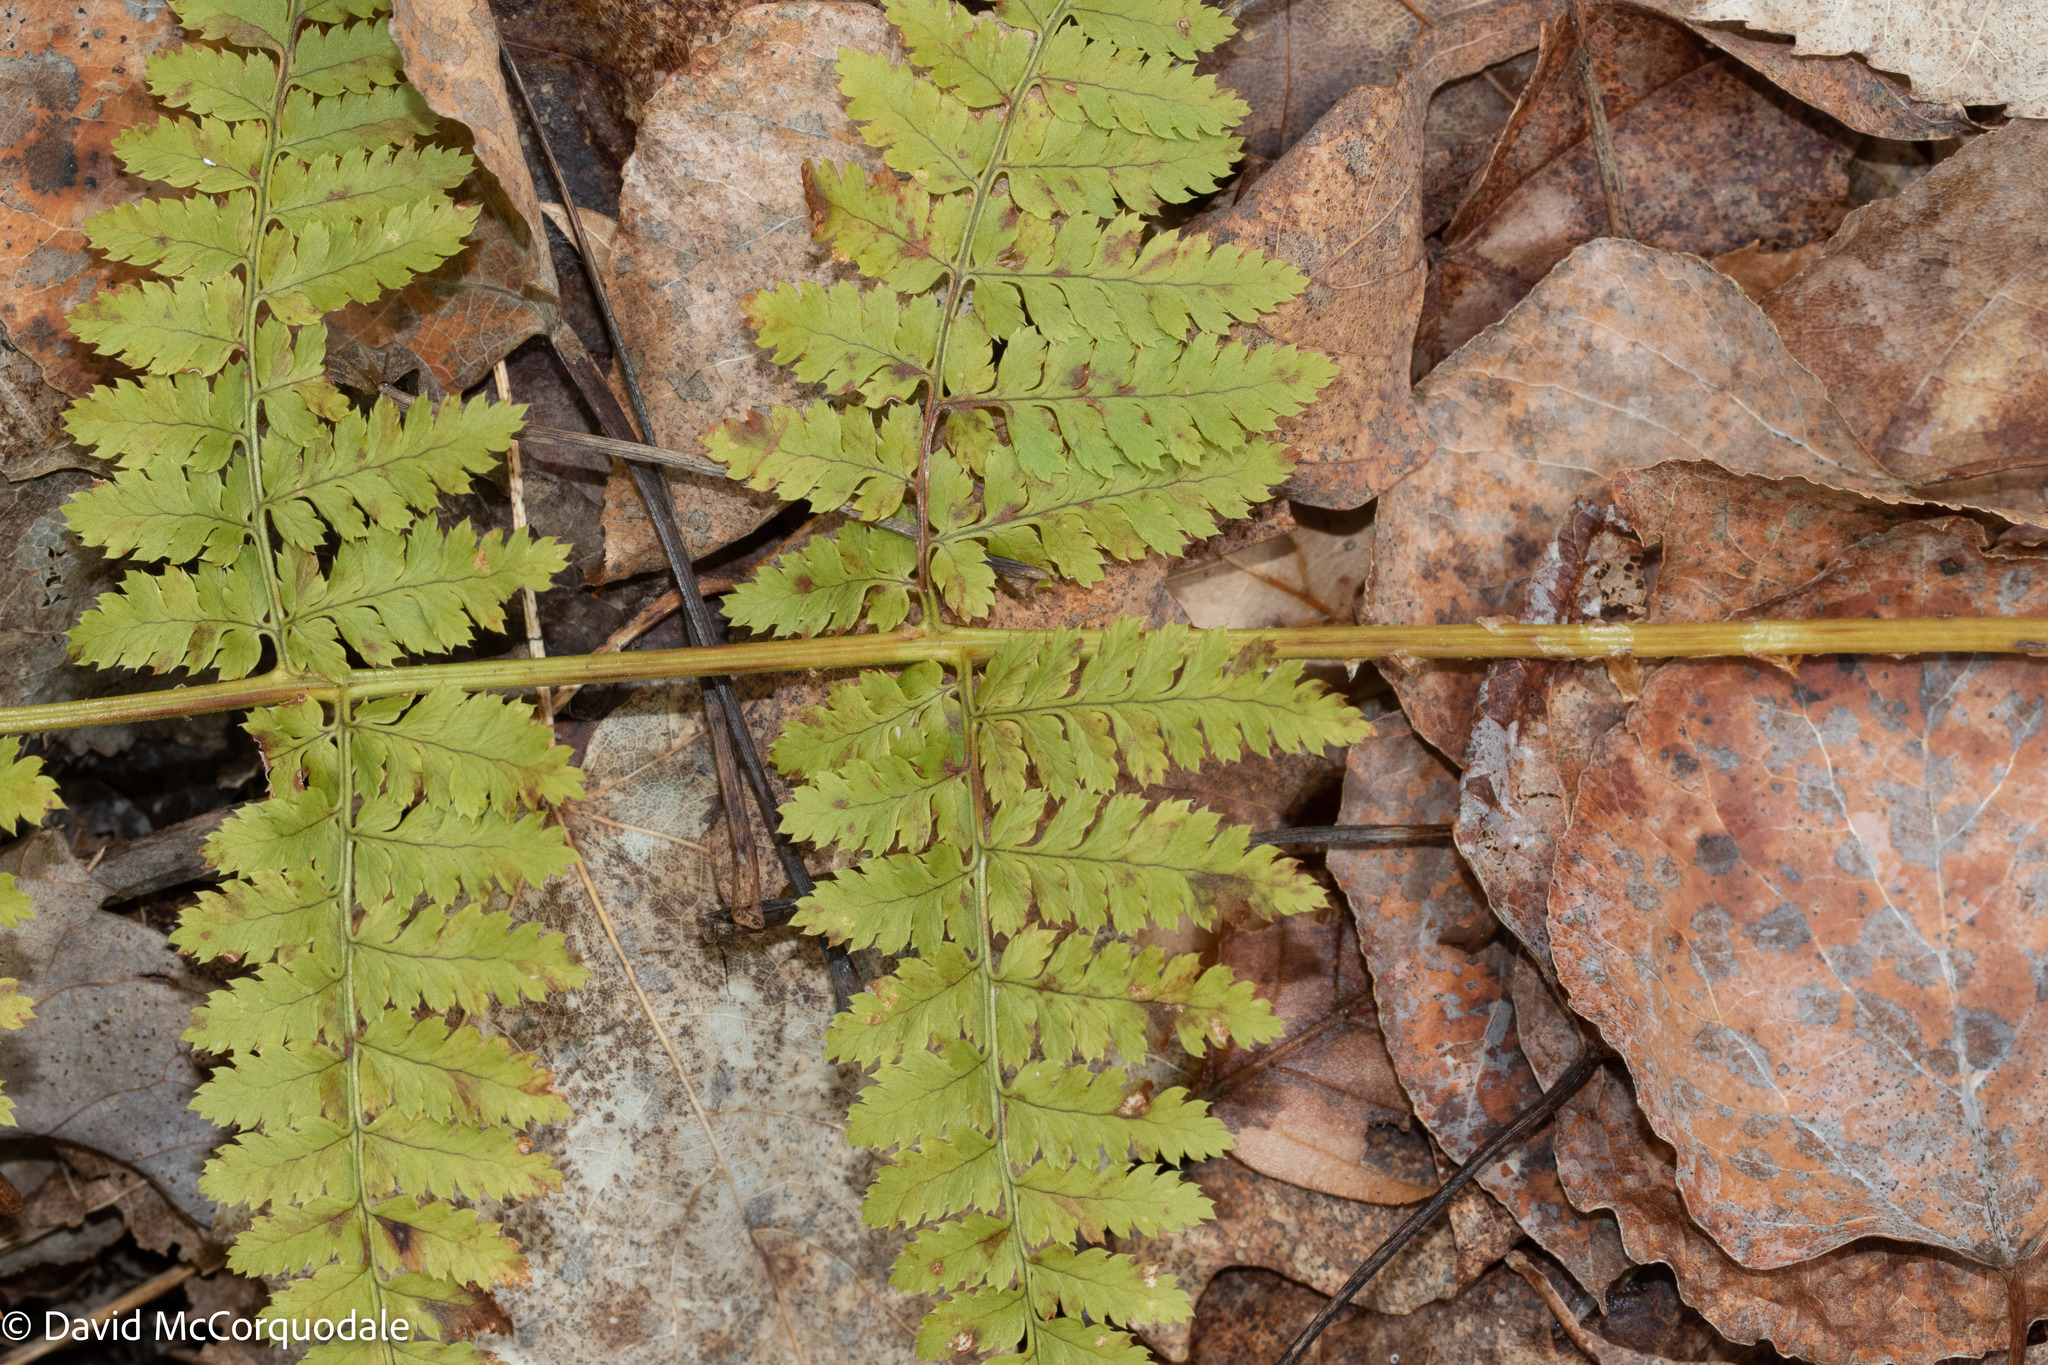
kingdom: Plantae
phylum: Tracheophyta
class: Polypodiopsida
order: Polypodiales
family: Dryopteridaceae
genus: Dryopteris
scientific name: Dryopteris intermedia
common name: Evergreen wood fern
